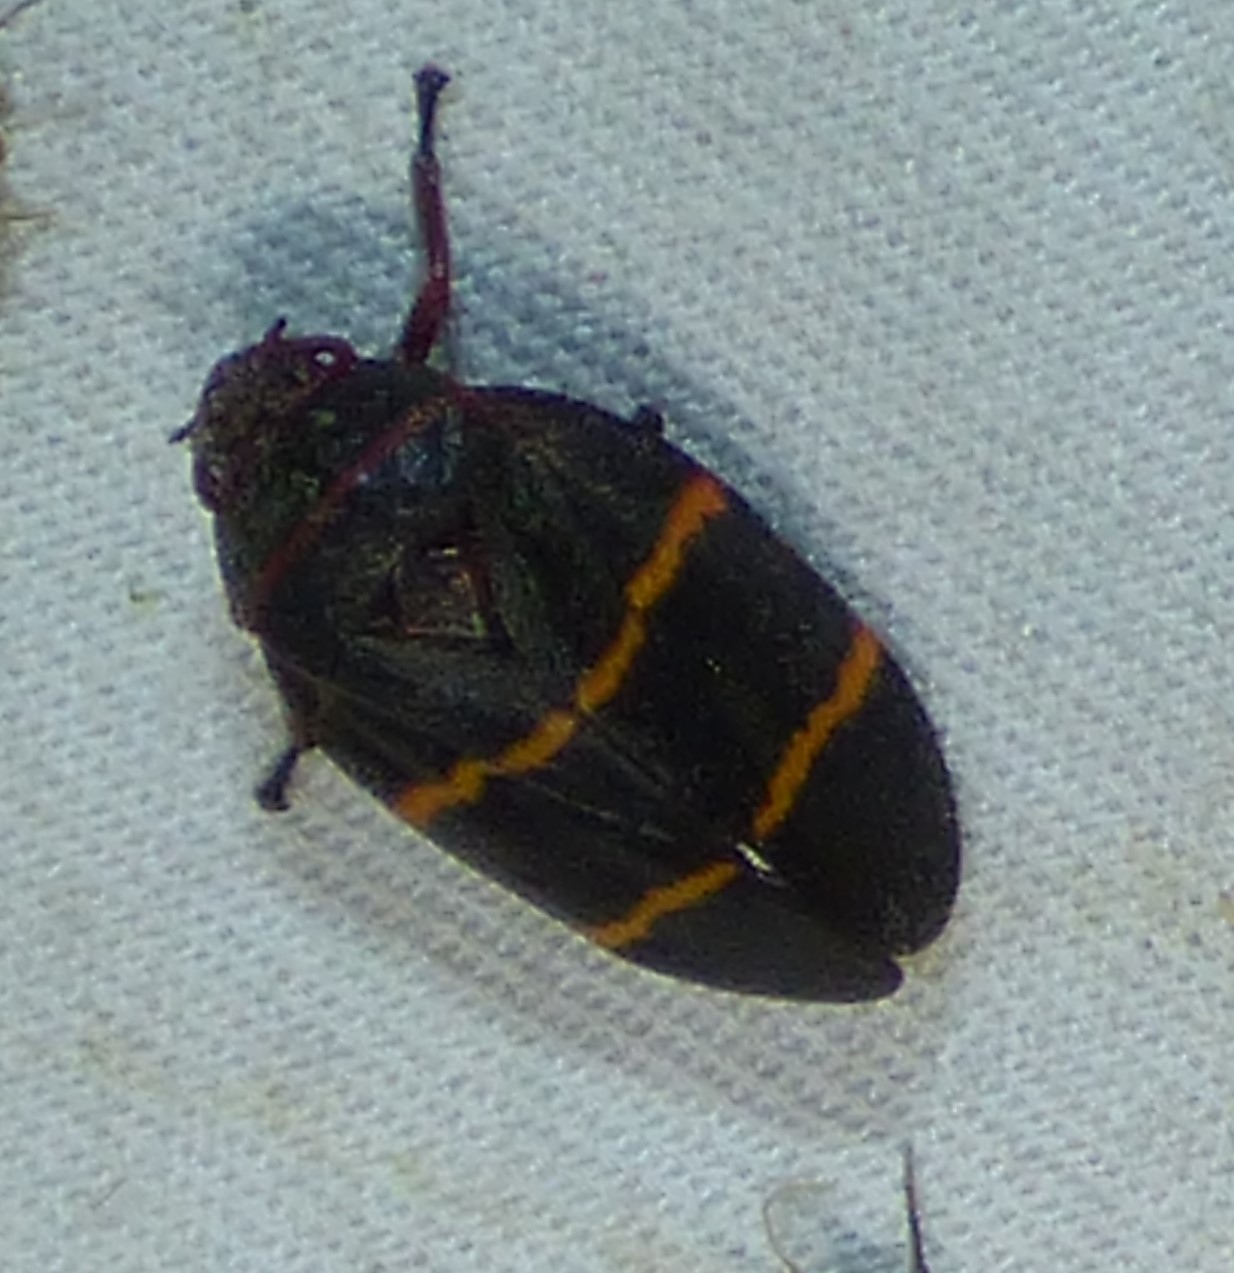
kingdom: Animalia
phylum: Arthropoda
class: Insecta
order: Hemiptera
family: Cercopidae
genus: Prosapia
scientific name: Prosapia bicincta
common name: Twolined spittlebug
